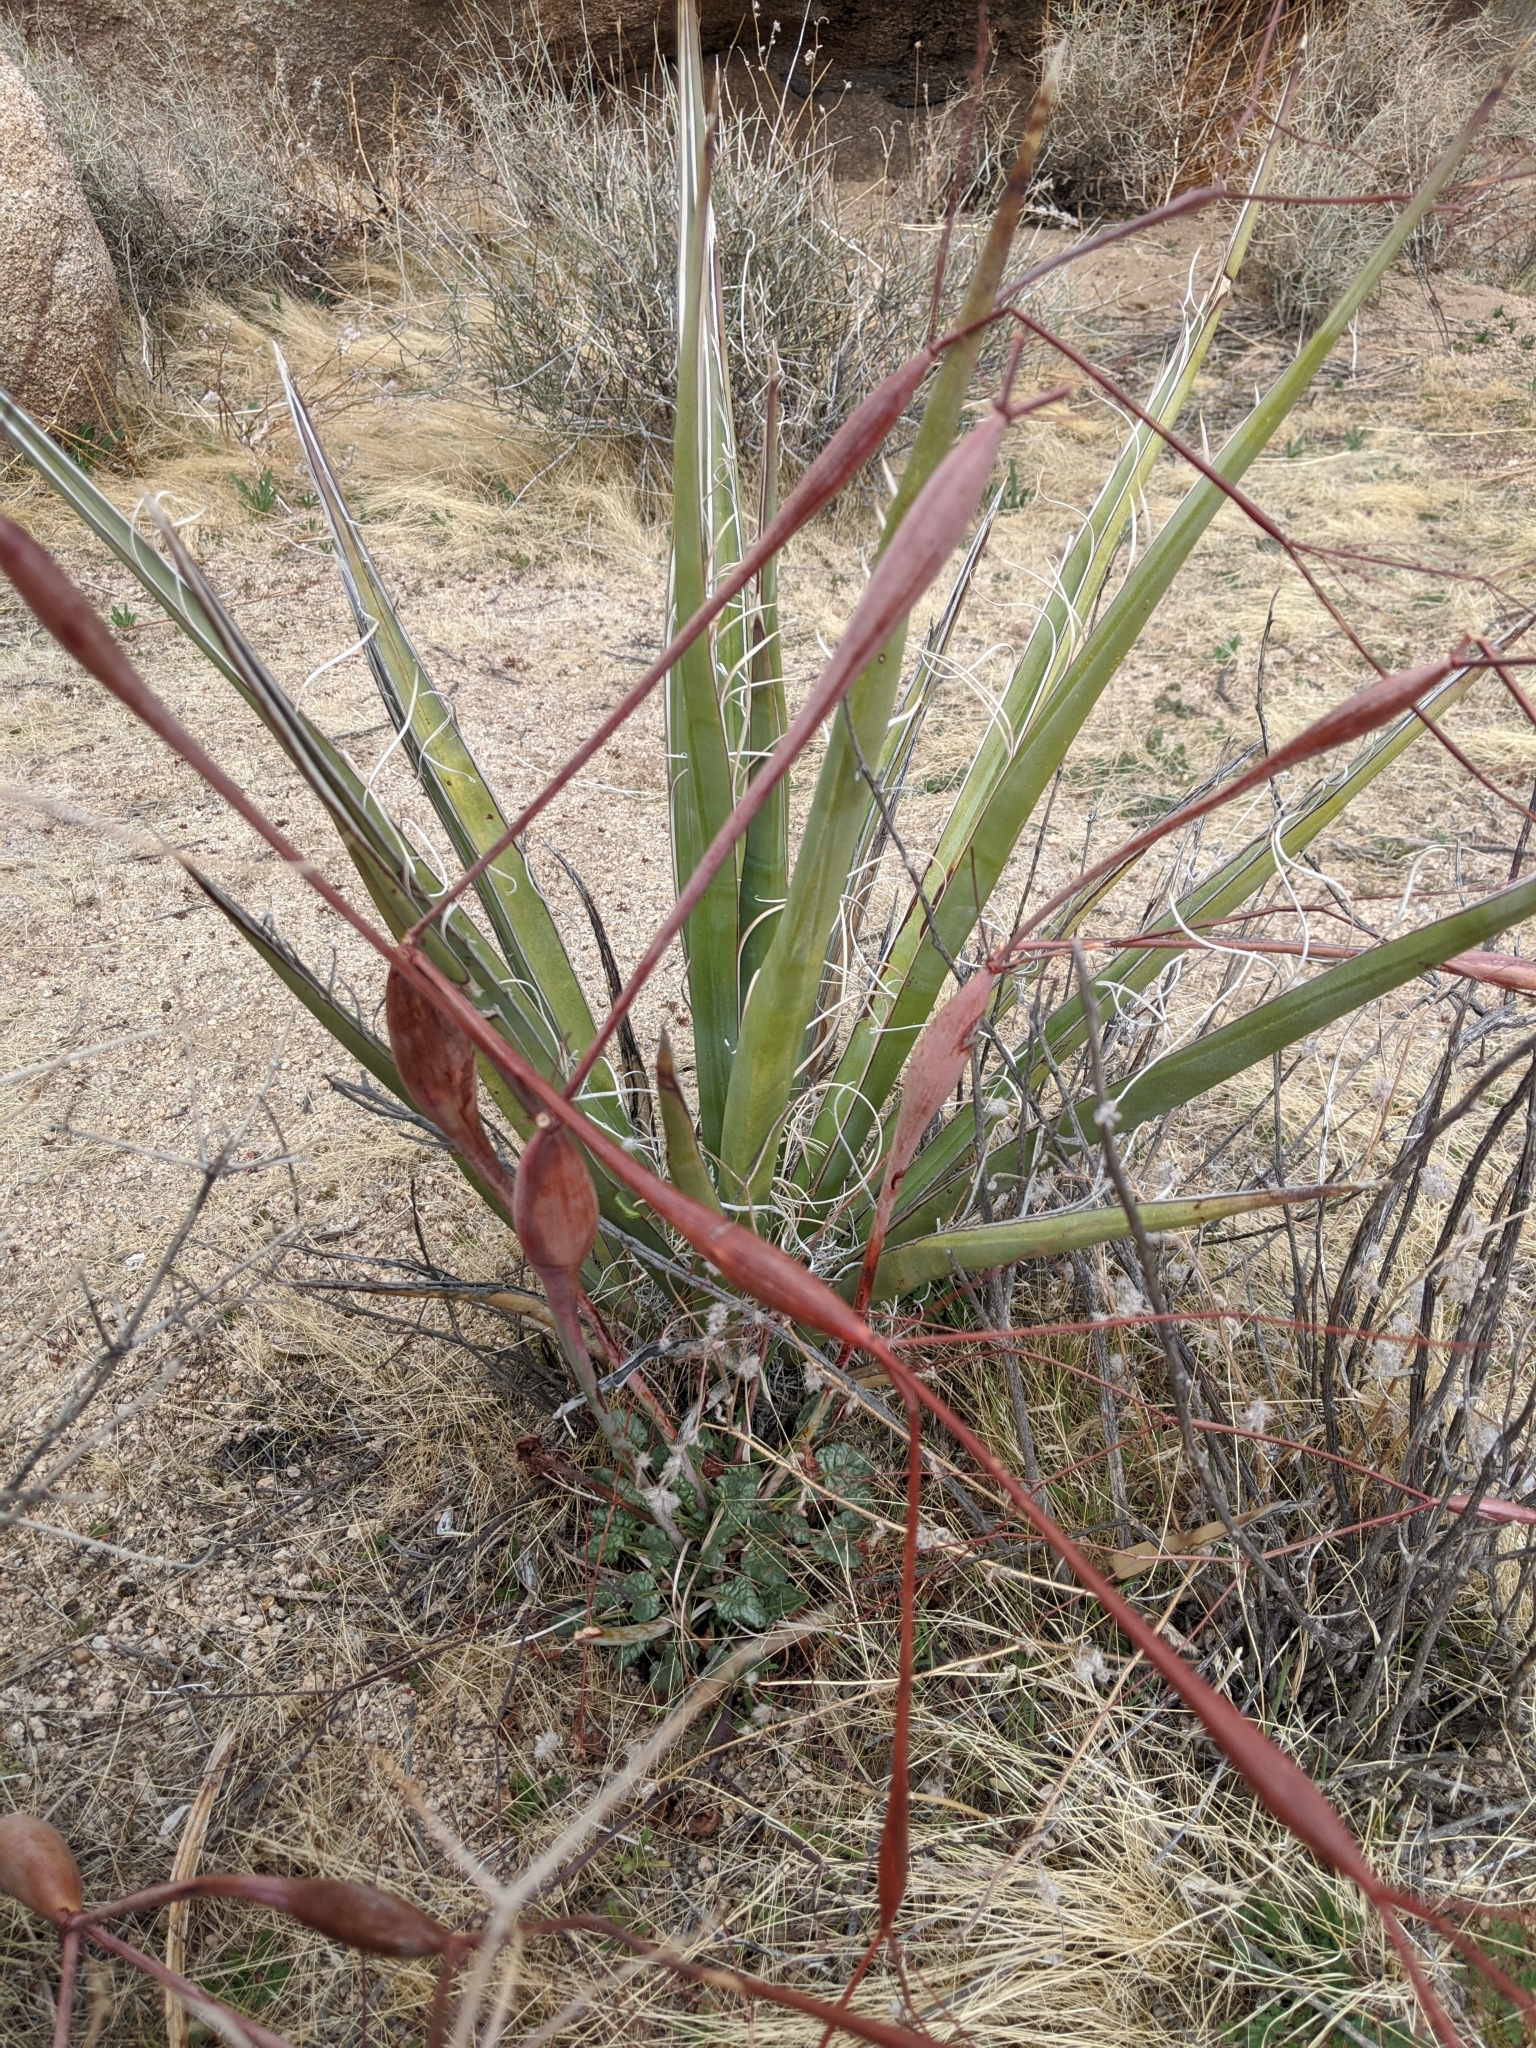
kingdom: Plantae
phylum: Tracheophyta
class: Magnoliopsida
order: Caryophyllales
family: Polygonaceae
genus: Eriogonum
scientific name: Eriogonum inflatum
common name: Desert trumpet
